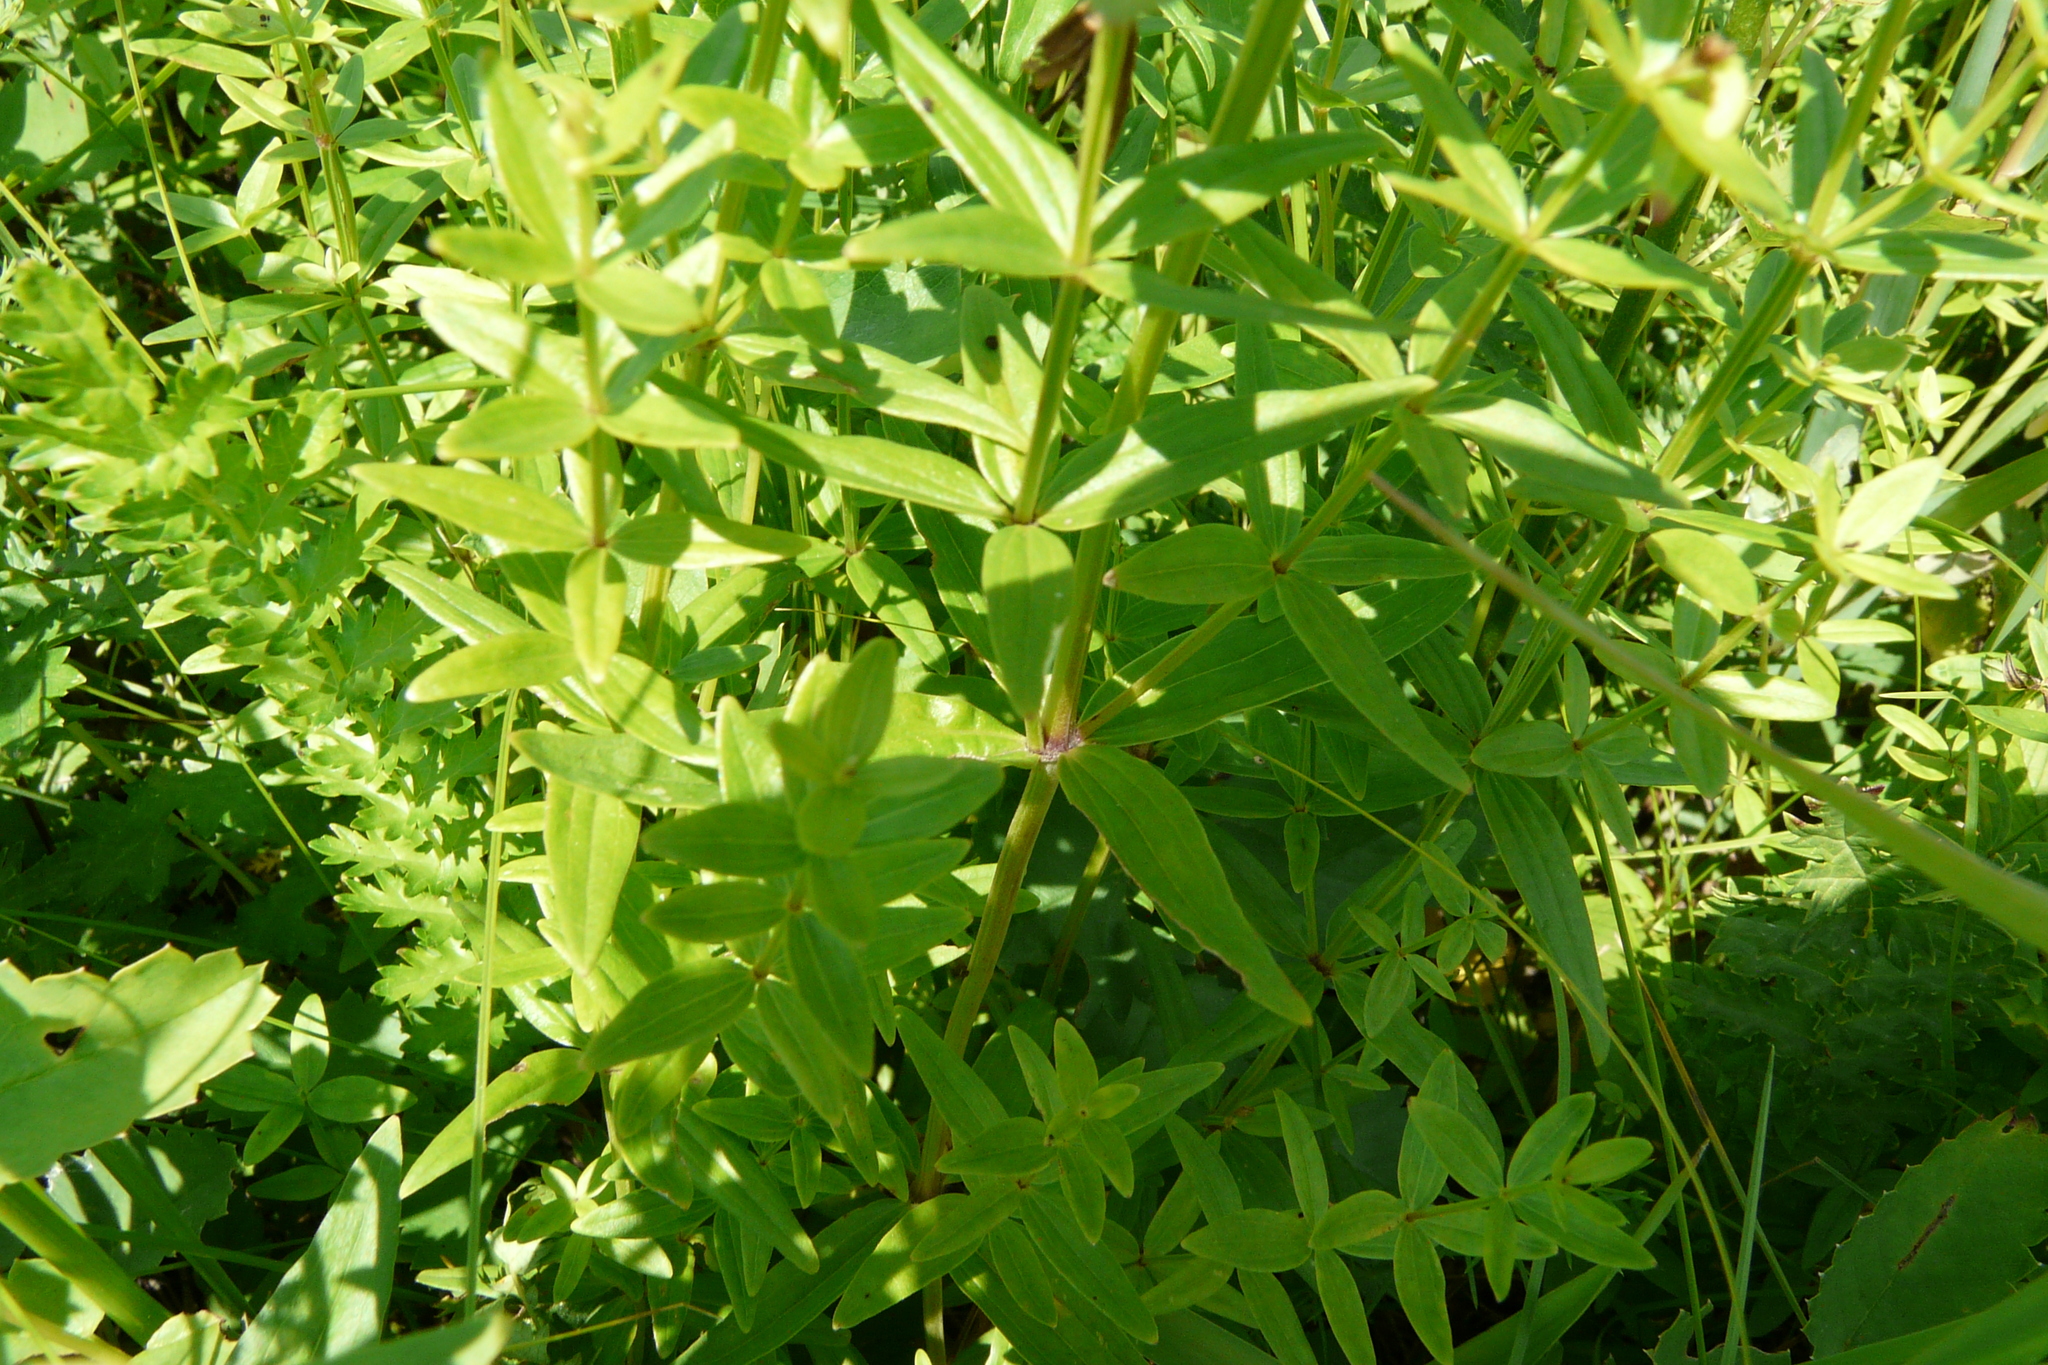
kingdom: Plantae
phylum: Tracheophyta
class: Magnoliopsida
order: Gentianales
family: Rubiaceae
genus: Galium
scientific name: Galium boreale
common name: Northern bedstraw
